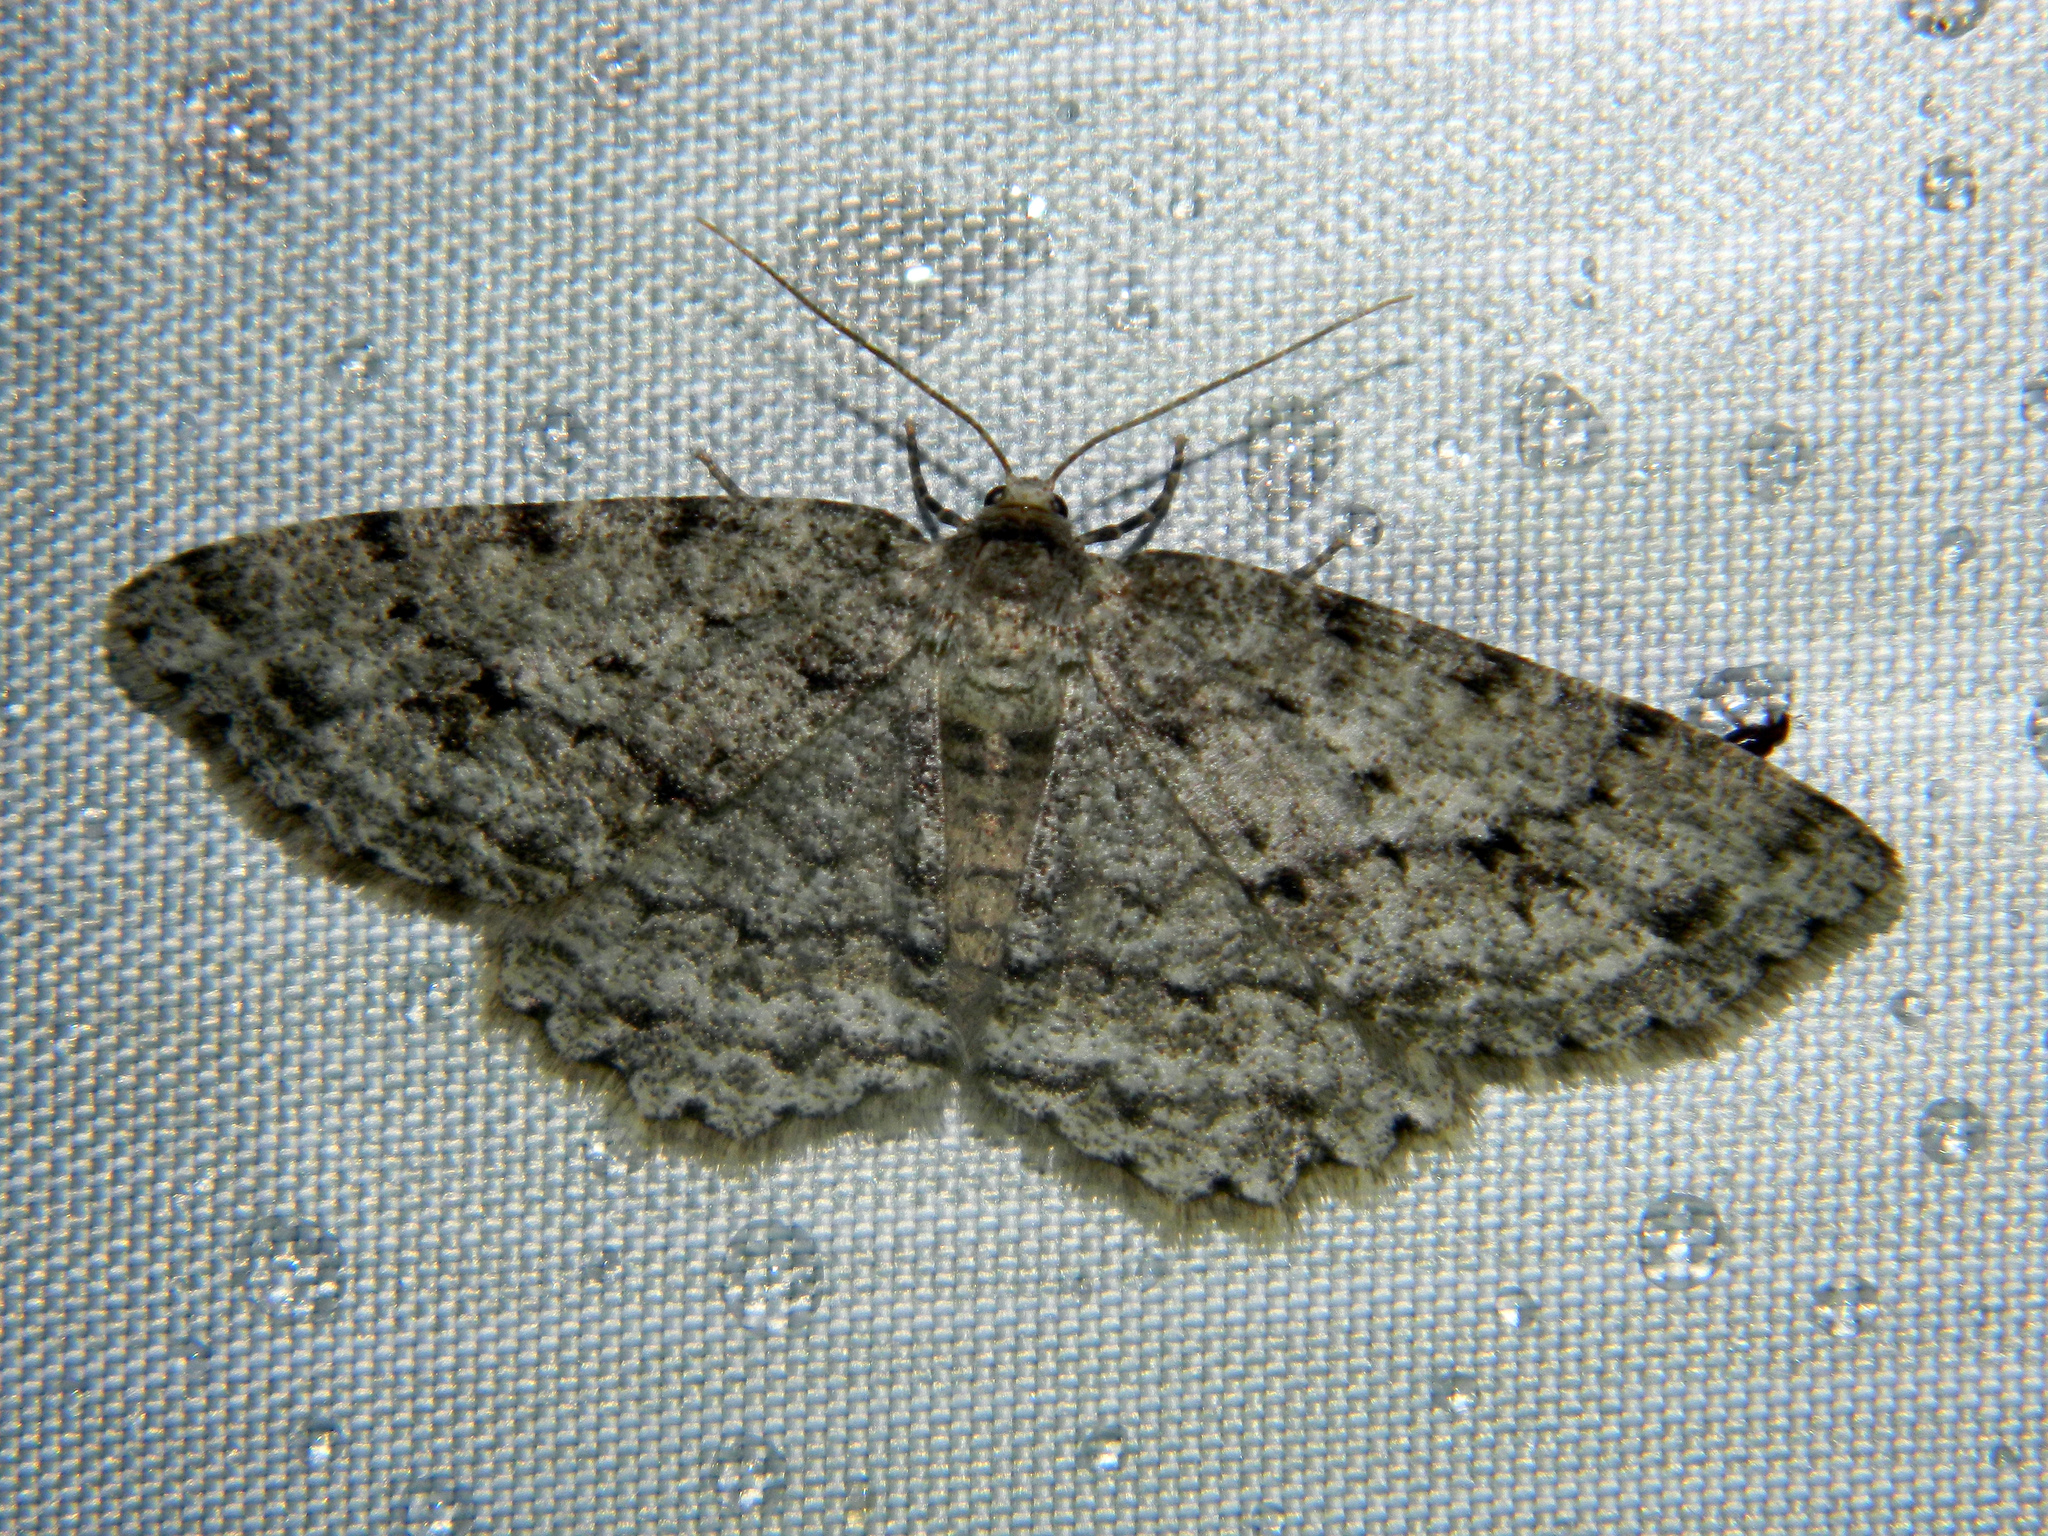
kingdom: Animalia
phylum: Arthropoda
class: Insecta
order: Lepidoptera
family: Geometridae
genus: Ectropis
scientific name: Ectropis crepuscularia
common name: Engrailed
